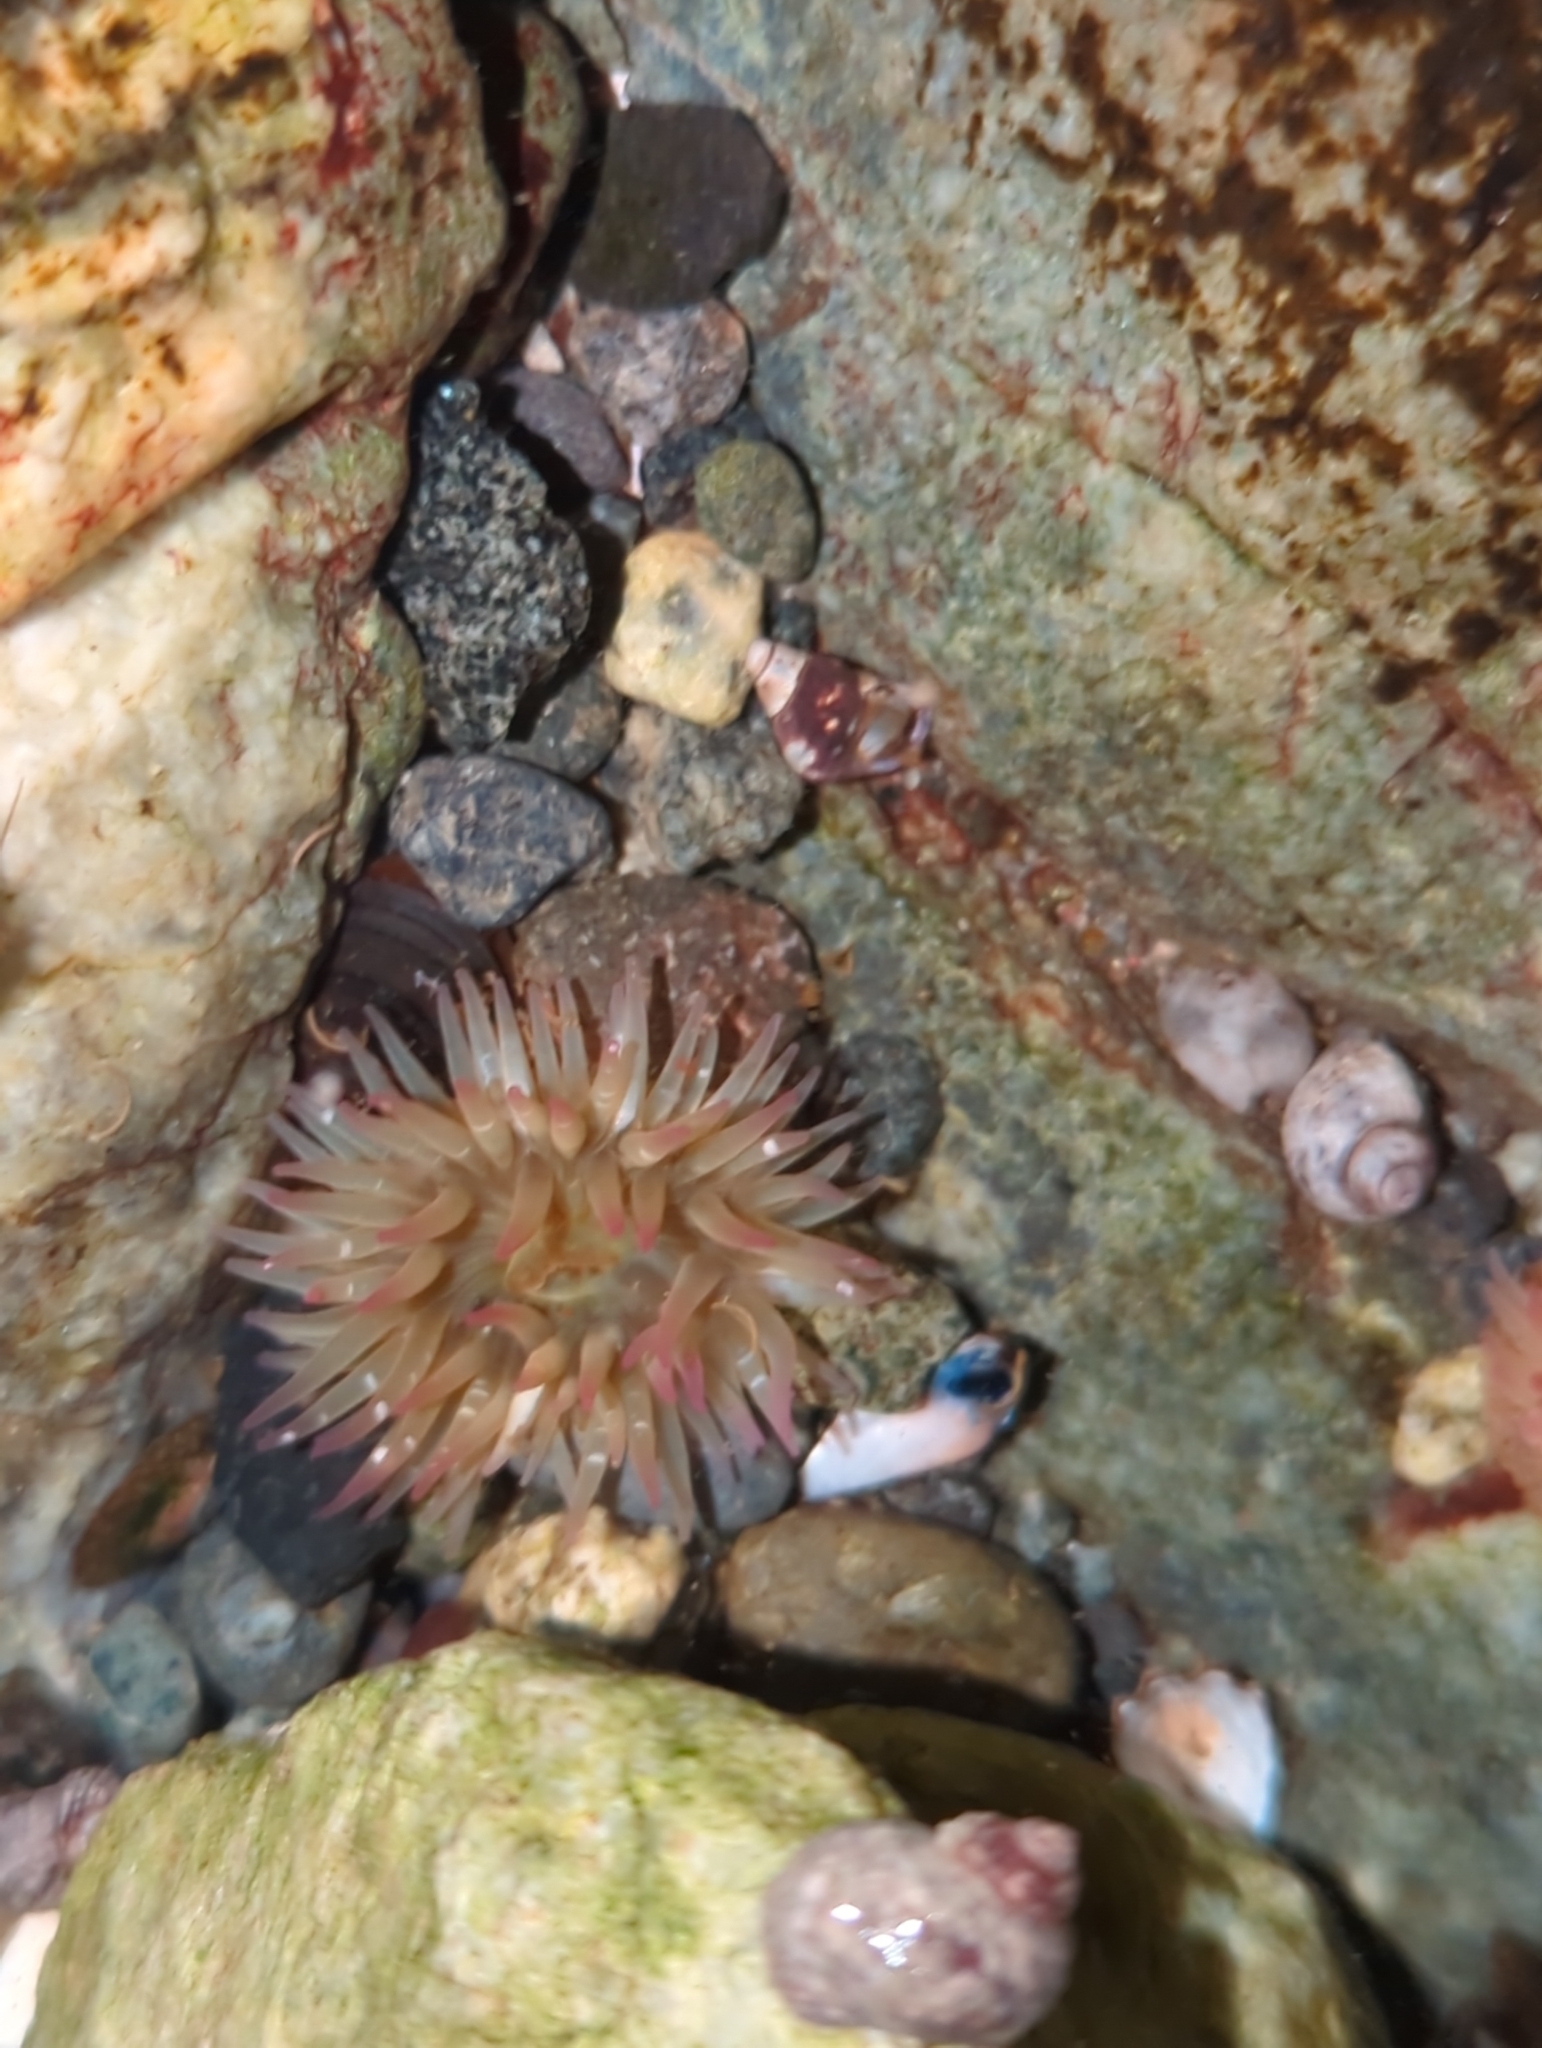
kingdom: Animalia
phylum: Cnidaria
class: Anthozoa
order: Actiniaria
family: Actiniidae
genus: Anthopleura
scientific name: Anthopleura elegantissima
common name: Clonal anemone
